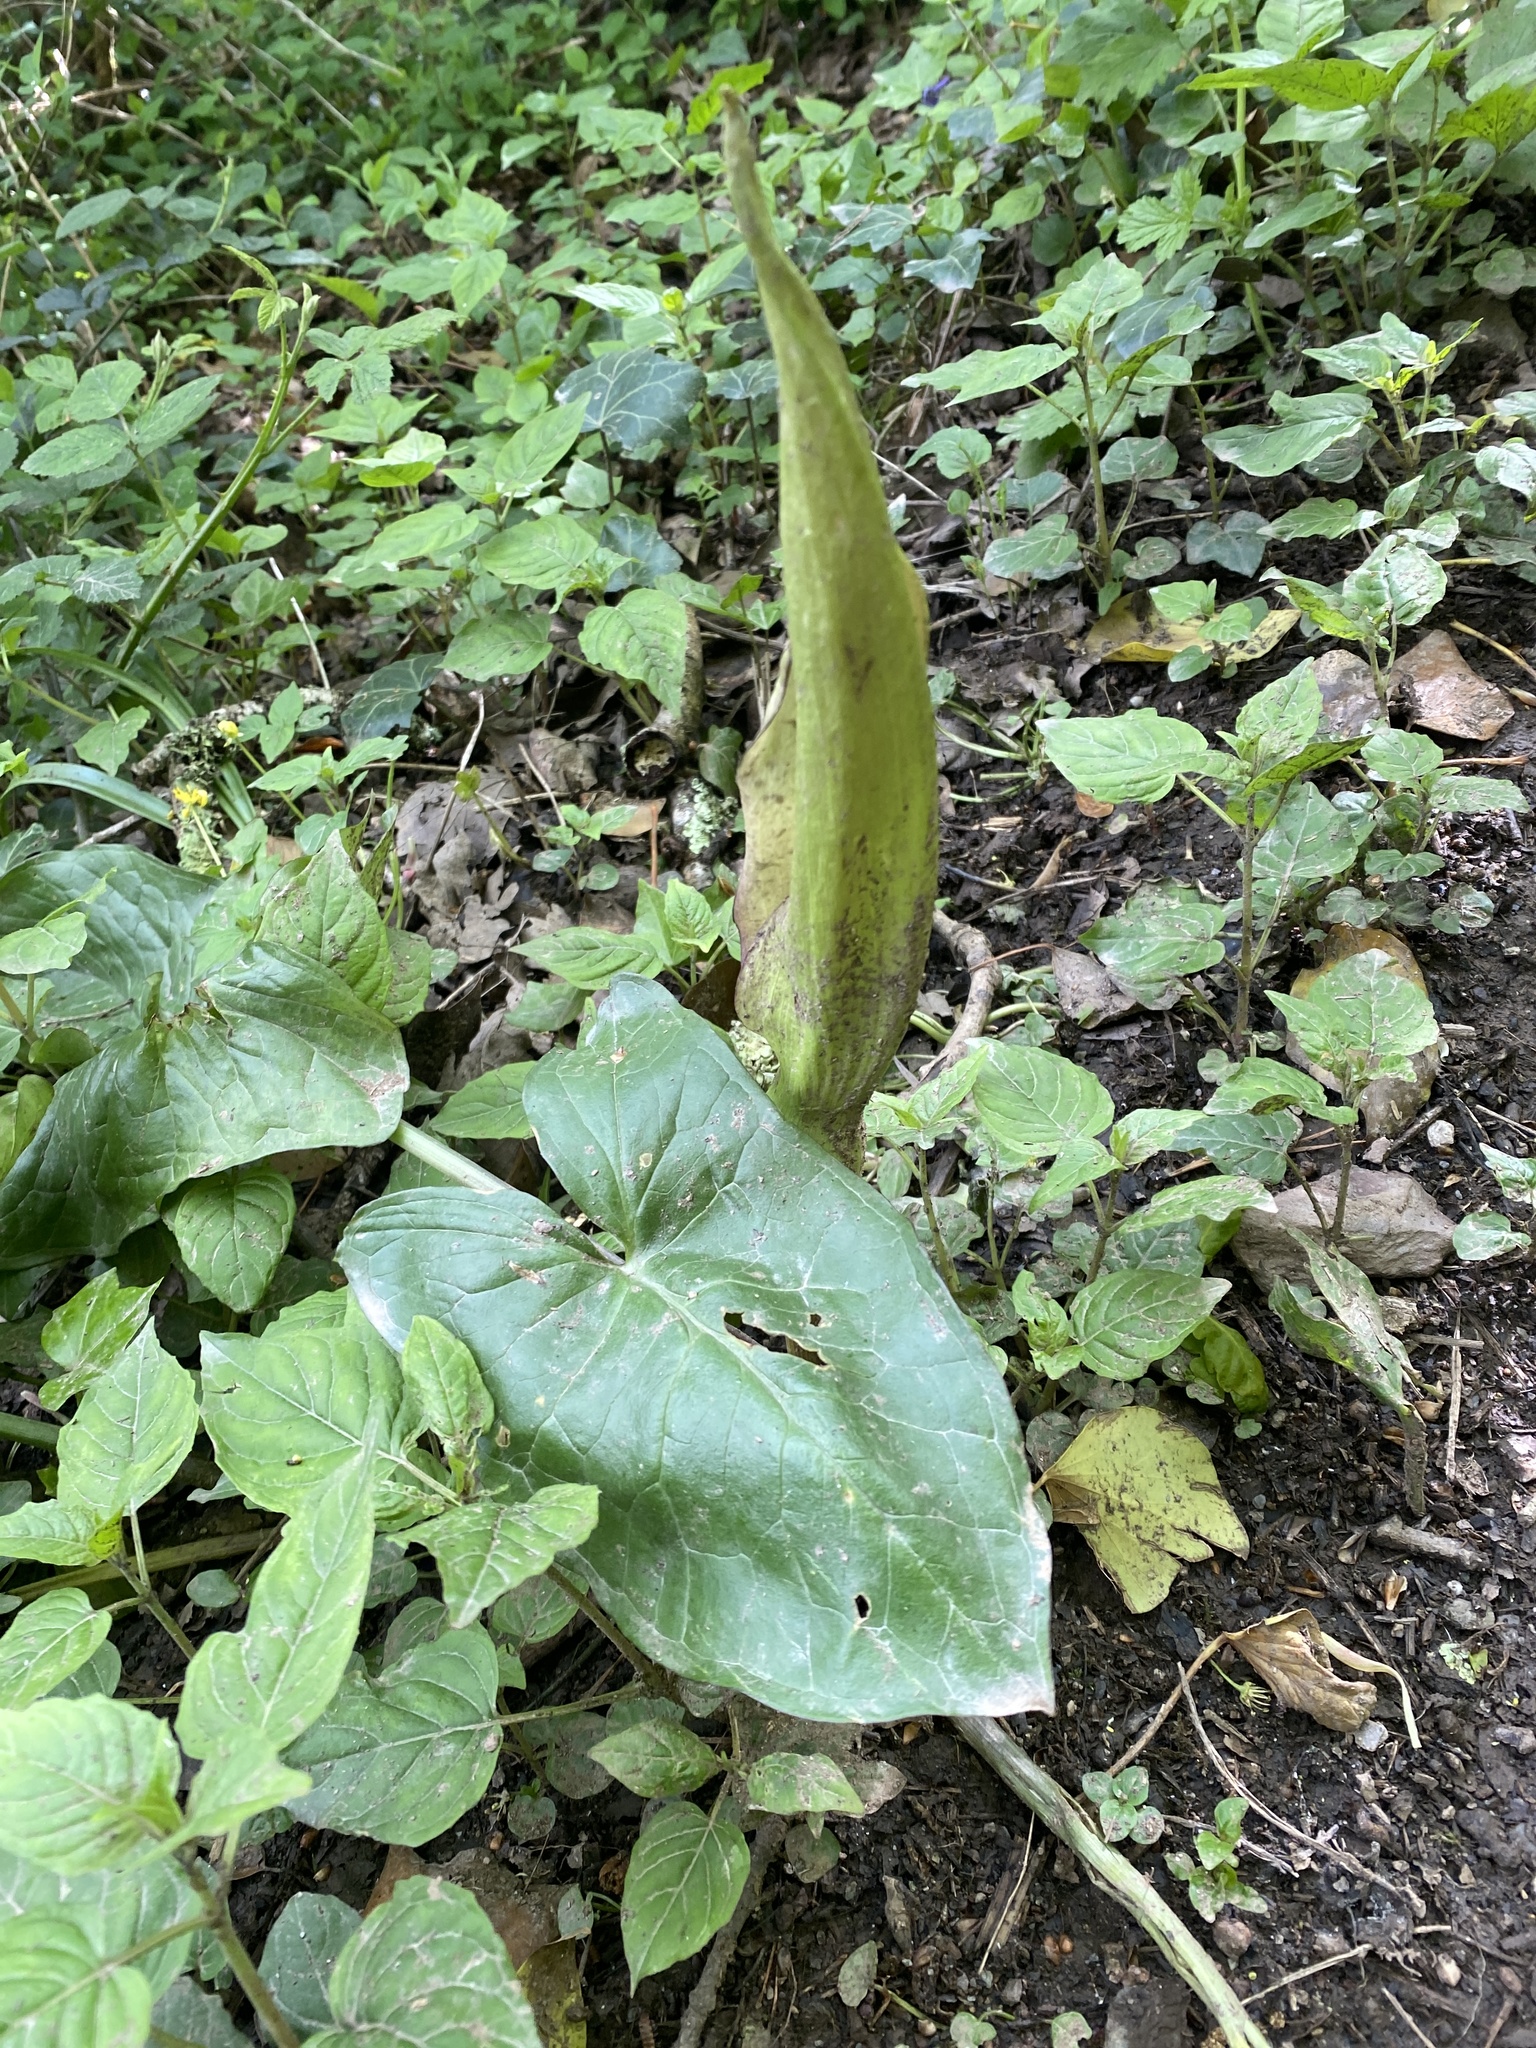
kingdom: Plantae
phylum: Tracheophyta
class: Liliopsida
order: Alismatales
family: Araceae
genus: Arum
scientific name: Arum maculatum
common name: Lords-and-ladies
